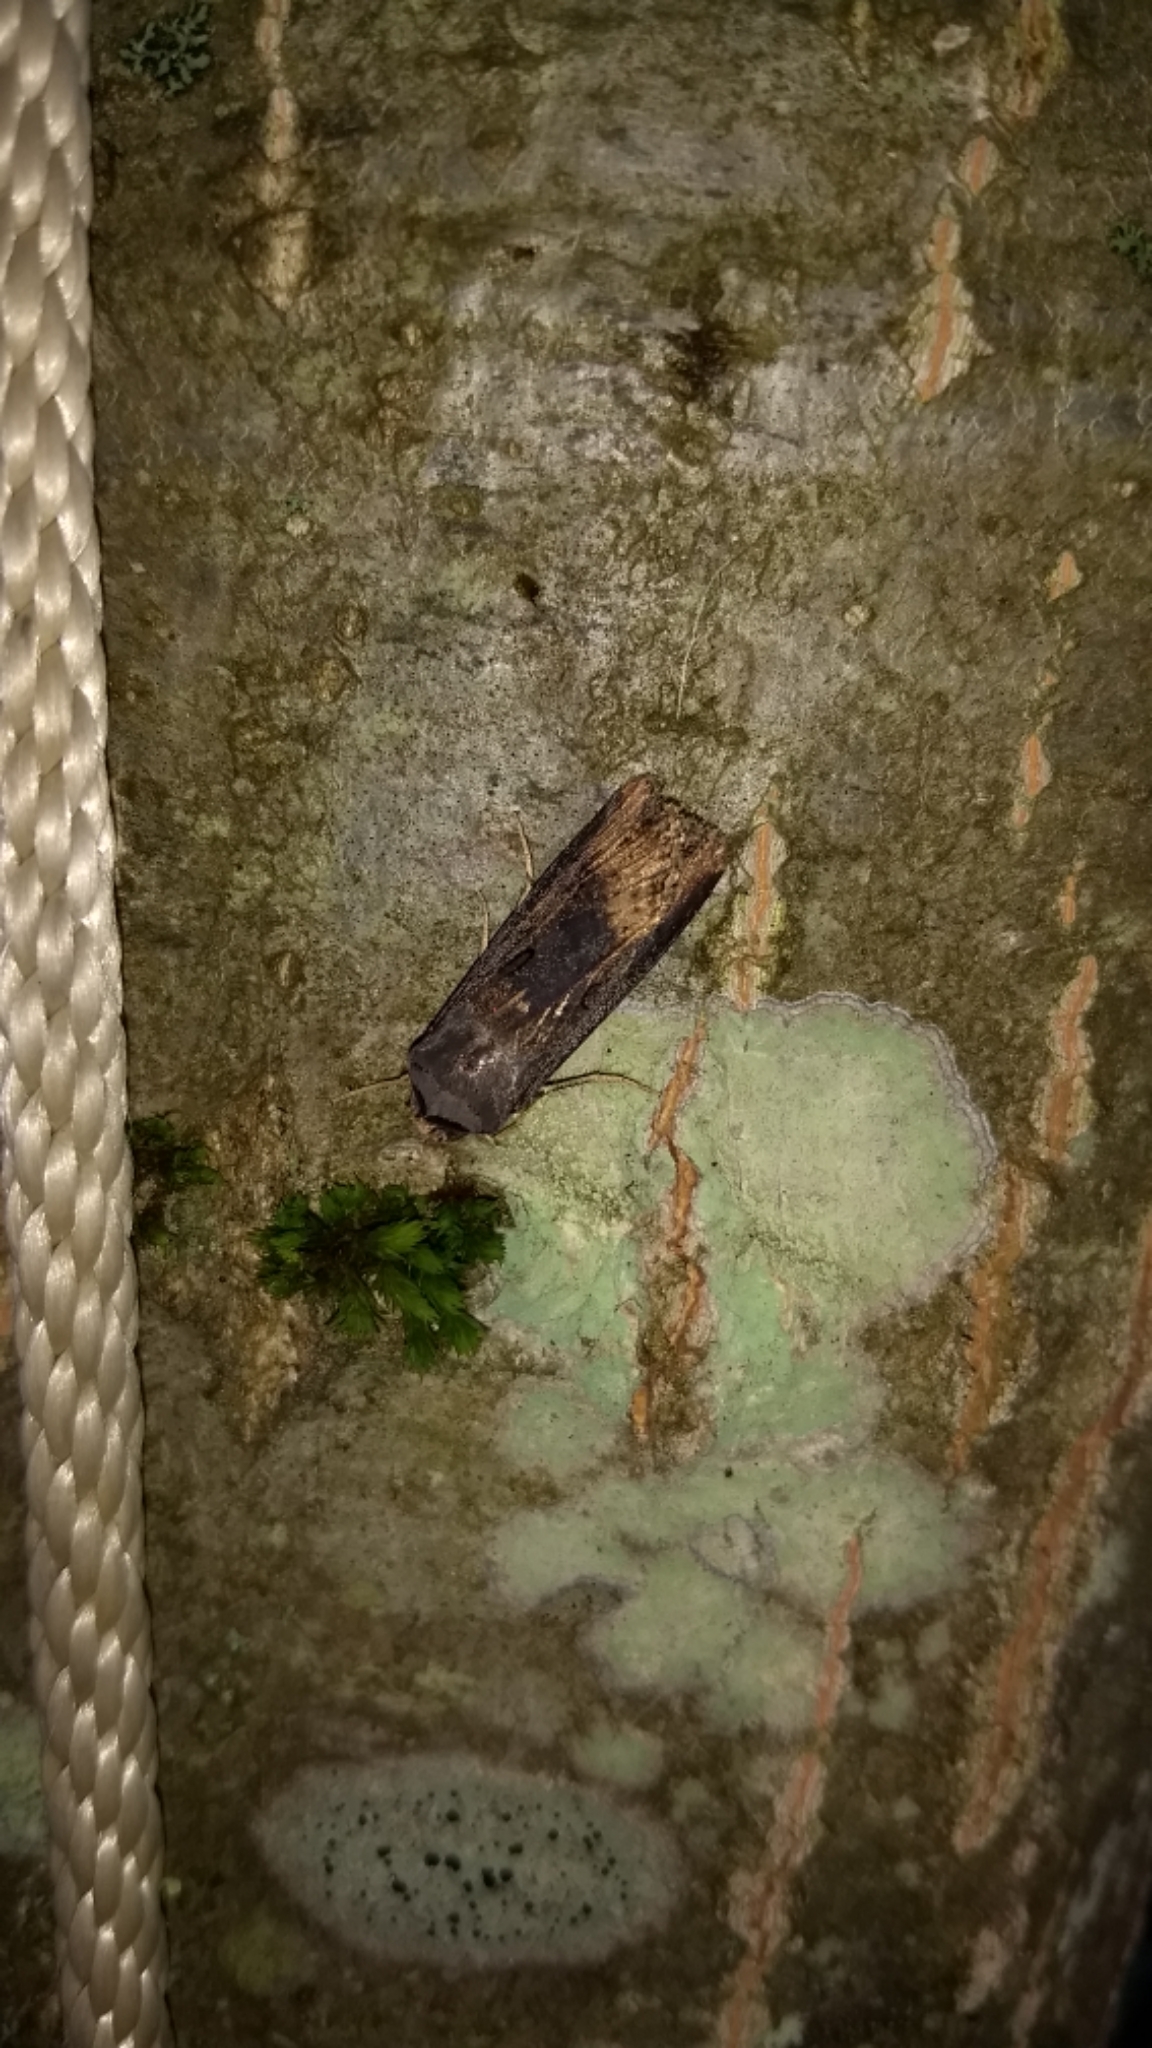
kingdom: Animalia
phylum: Arthropoda
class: Insecta
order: Lepidoptera
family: Noctuidae
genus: Agrotis
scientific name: Agrotis ipsilon
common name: Dark sword-grass
